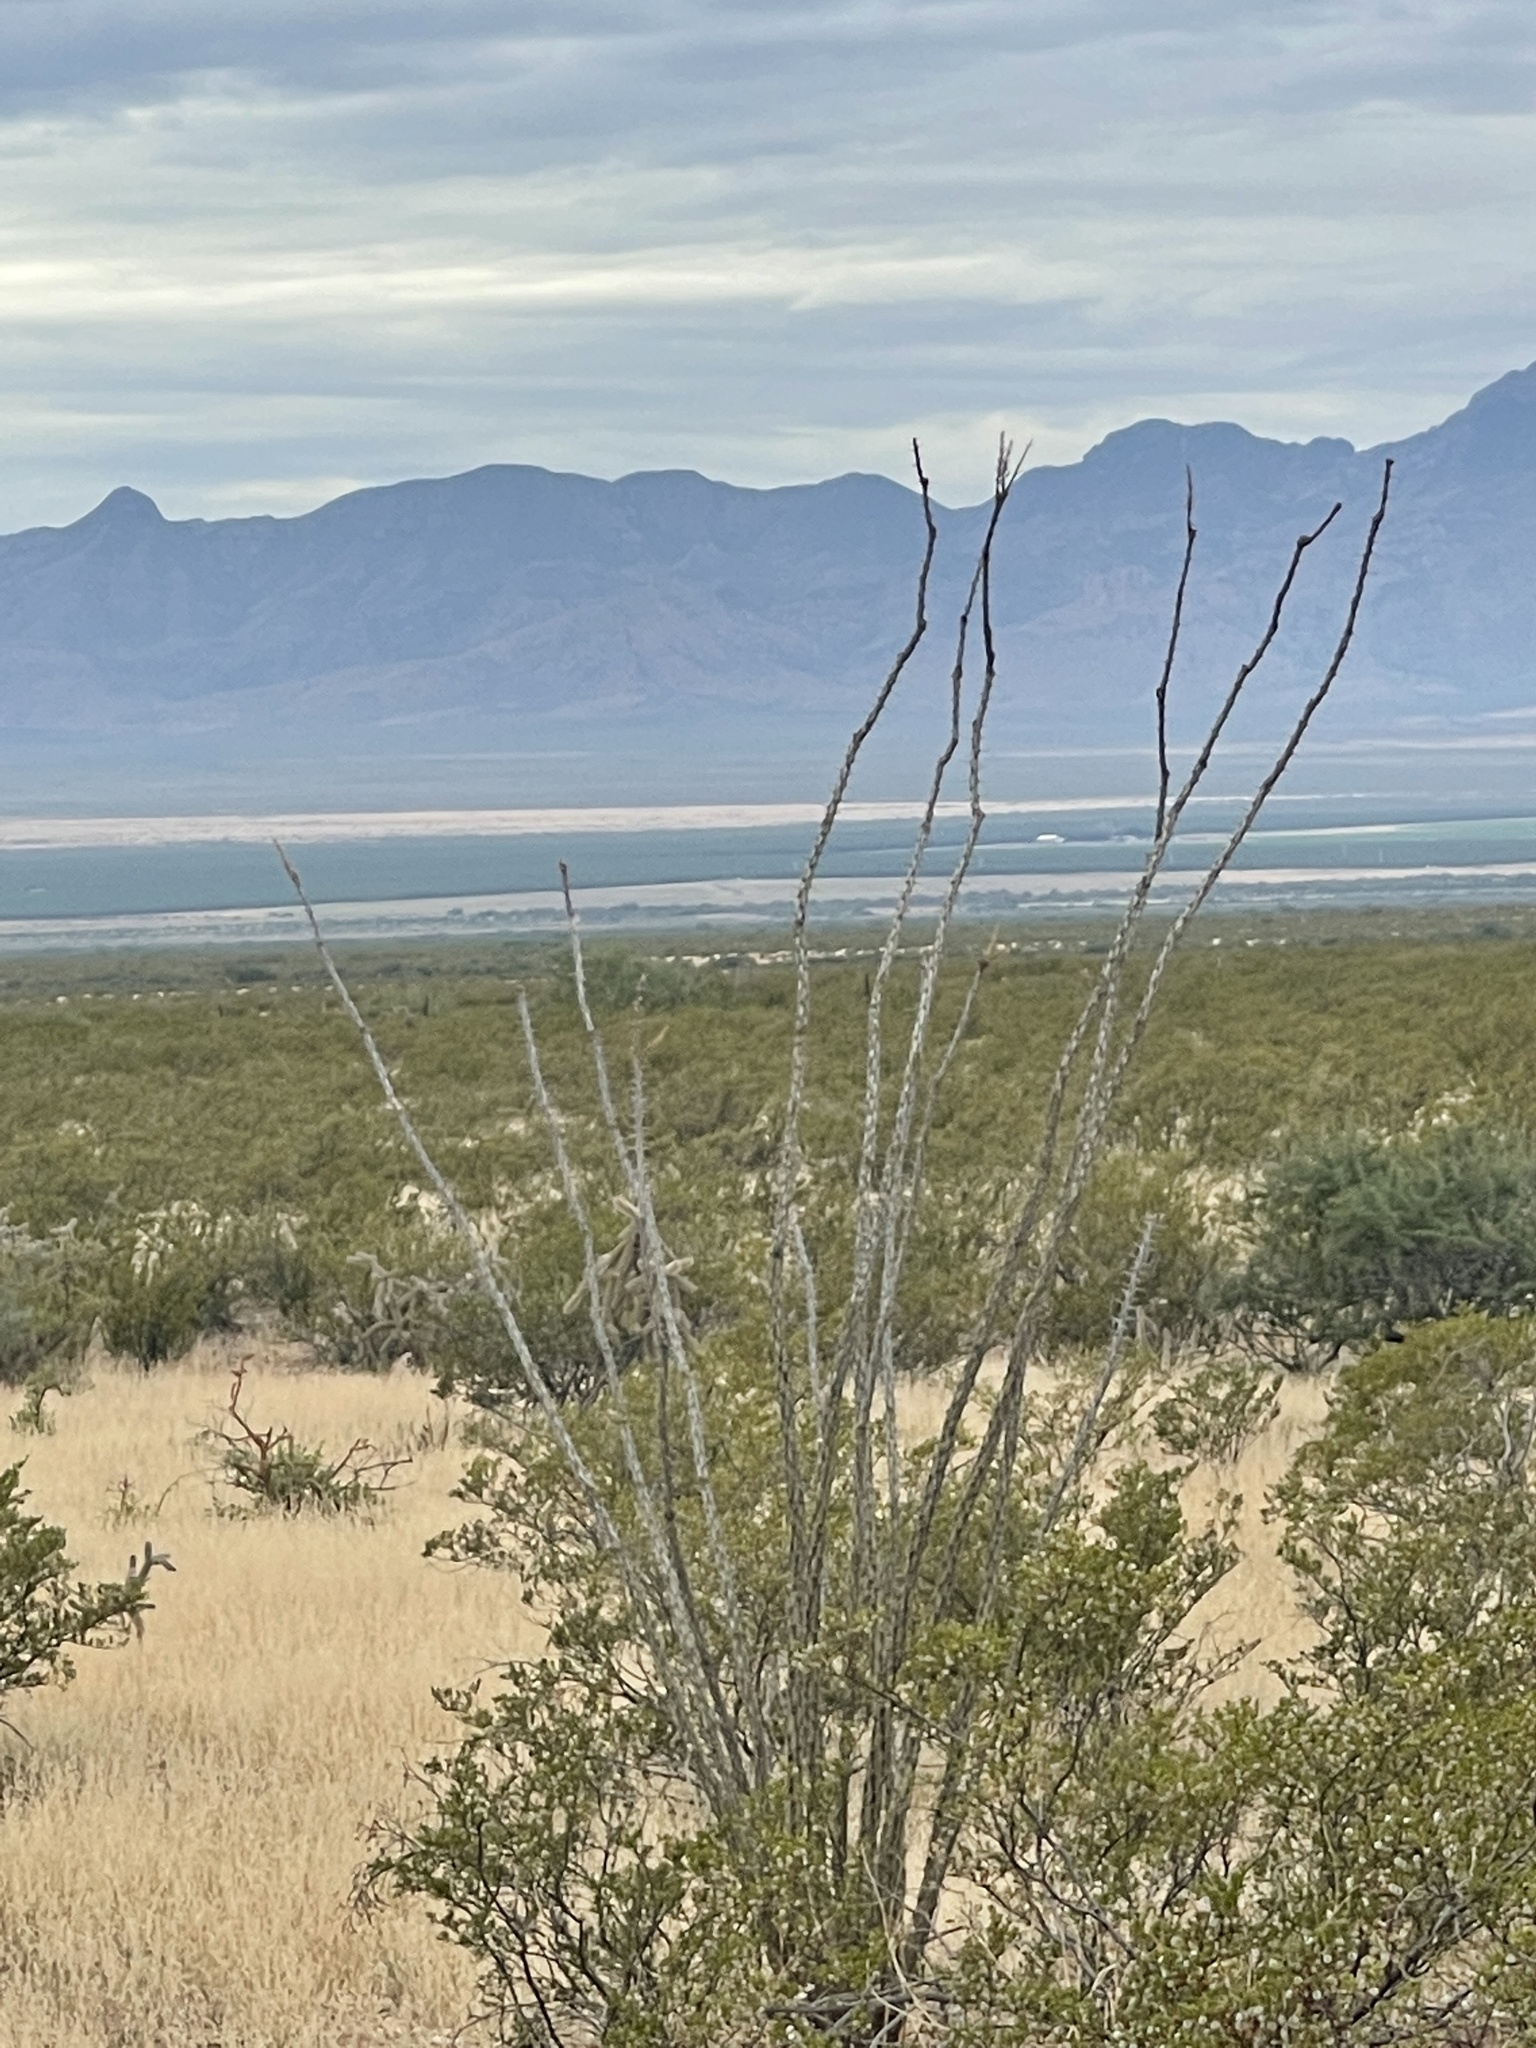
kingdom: Plantae
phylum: Tracheophyta
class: Magnoliopsida
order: Ericales
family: Fouquieriaceae
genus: Fouquieria
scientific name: Fouquieria splendens
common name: Vine-cactus
